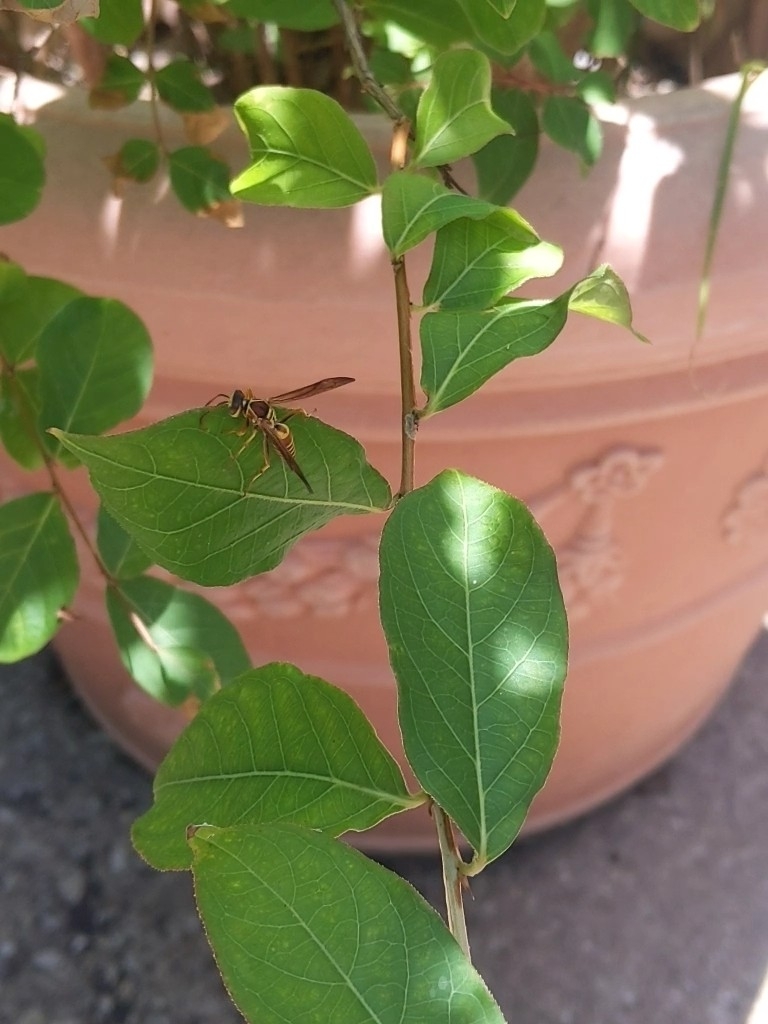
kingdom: Animalia
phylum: Arthropoda
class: Insecta
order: Hymenoptera
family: Eumenidae
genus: Polistes
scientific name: Polistes dorsalis
